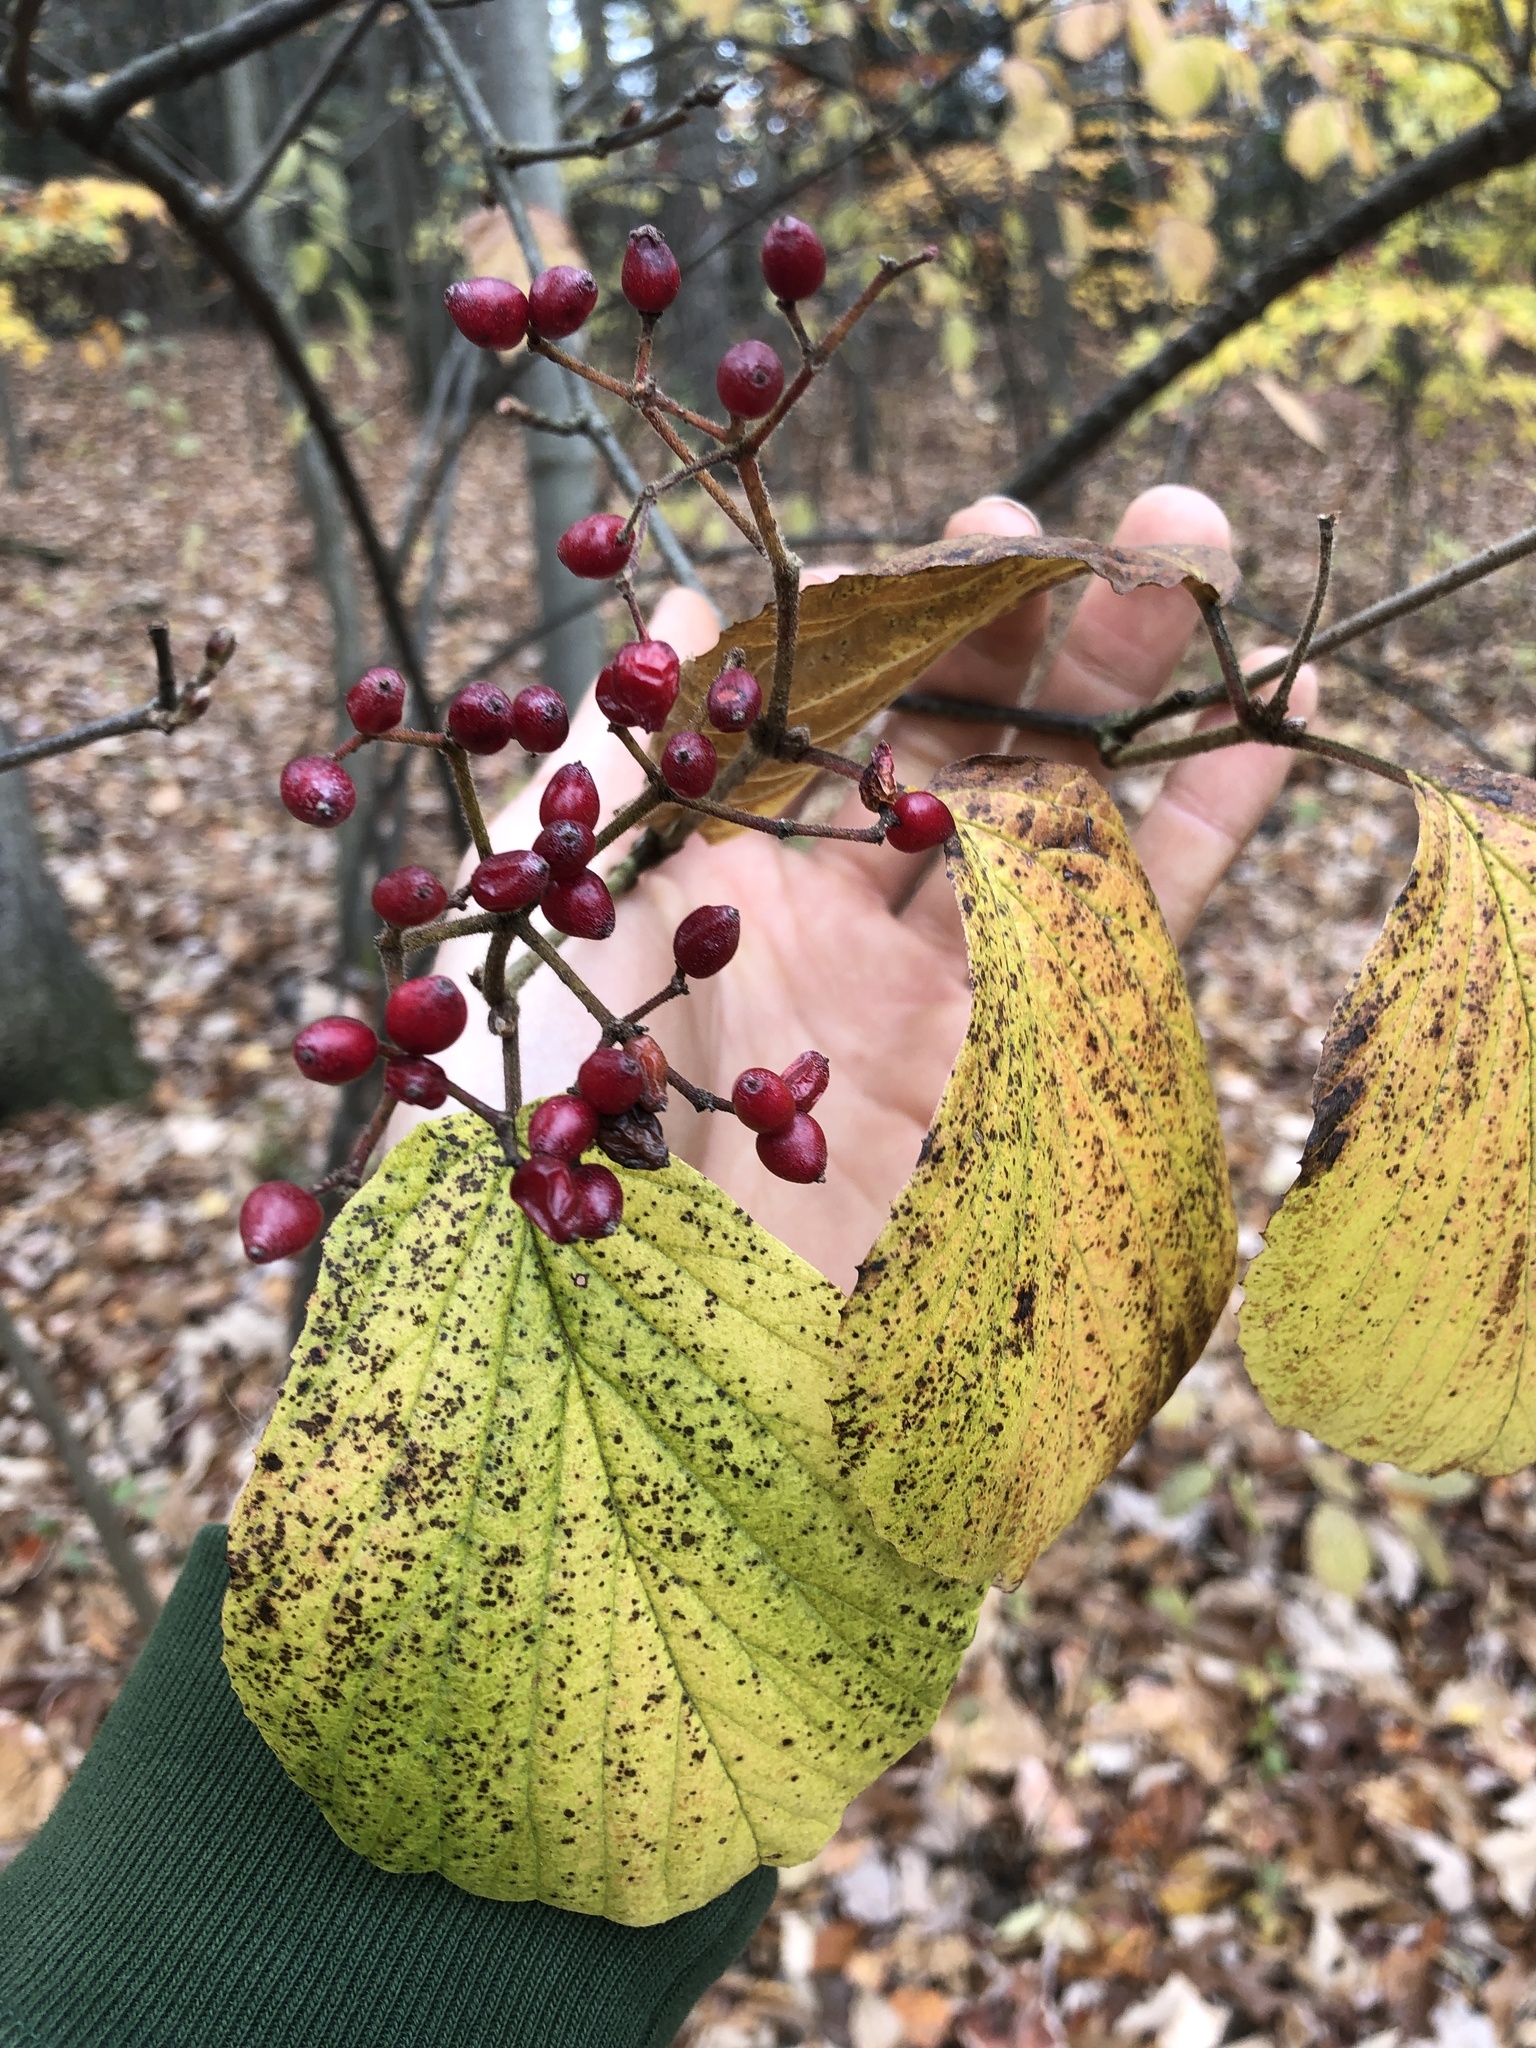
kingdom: Plantae
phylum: Tracheophyta
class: Magnoliopsida
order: Dipsacales
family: Viburnaceae
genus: Viburnum
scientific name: Viburnum dilatatum
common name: Linden arrowwood
